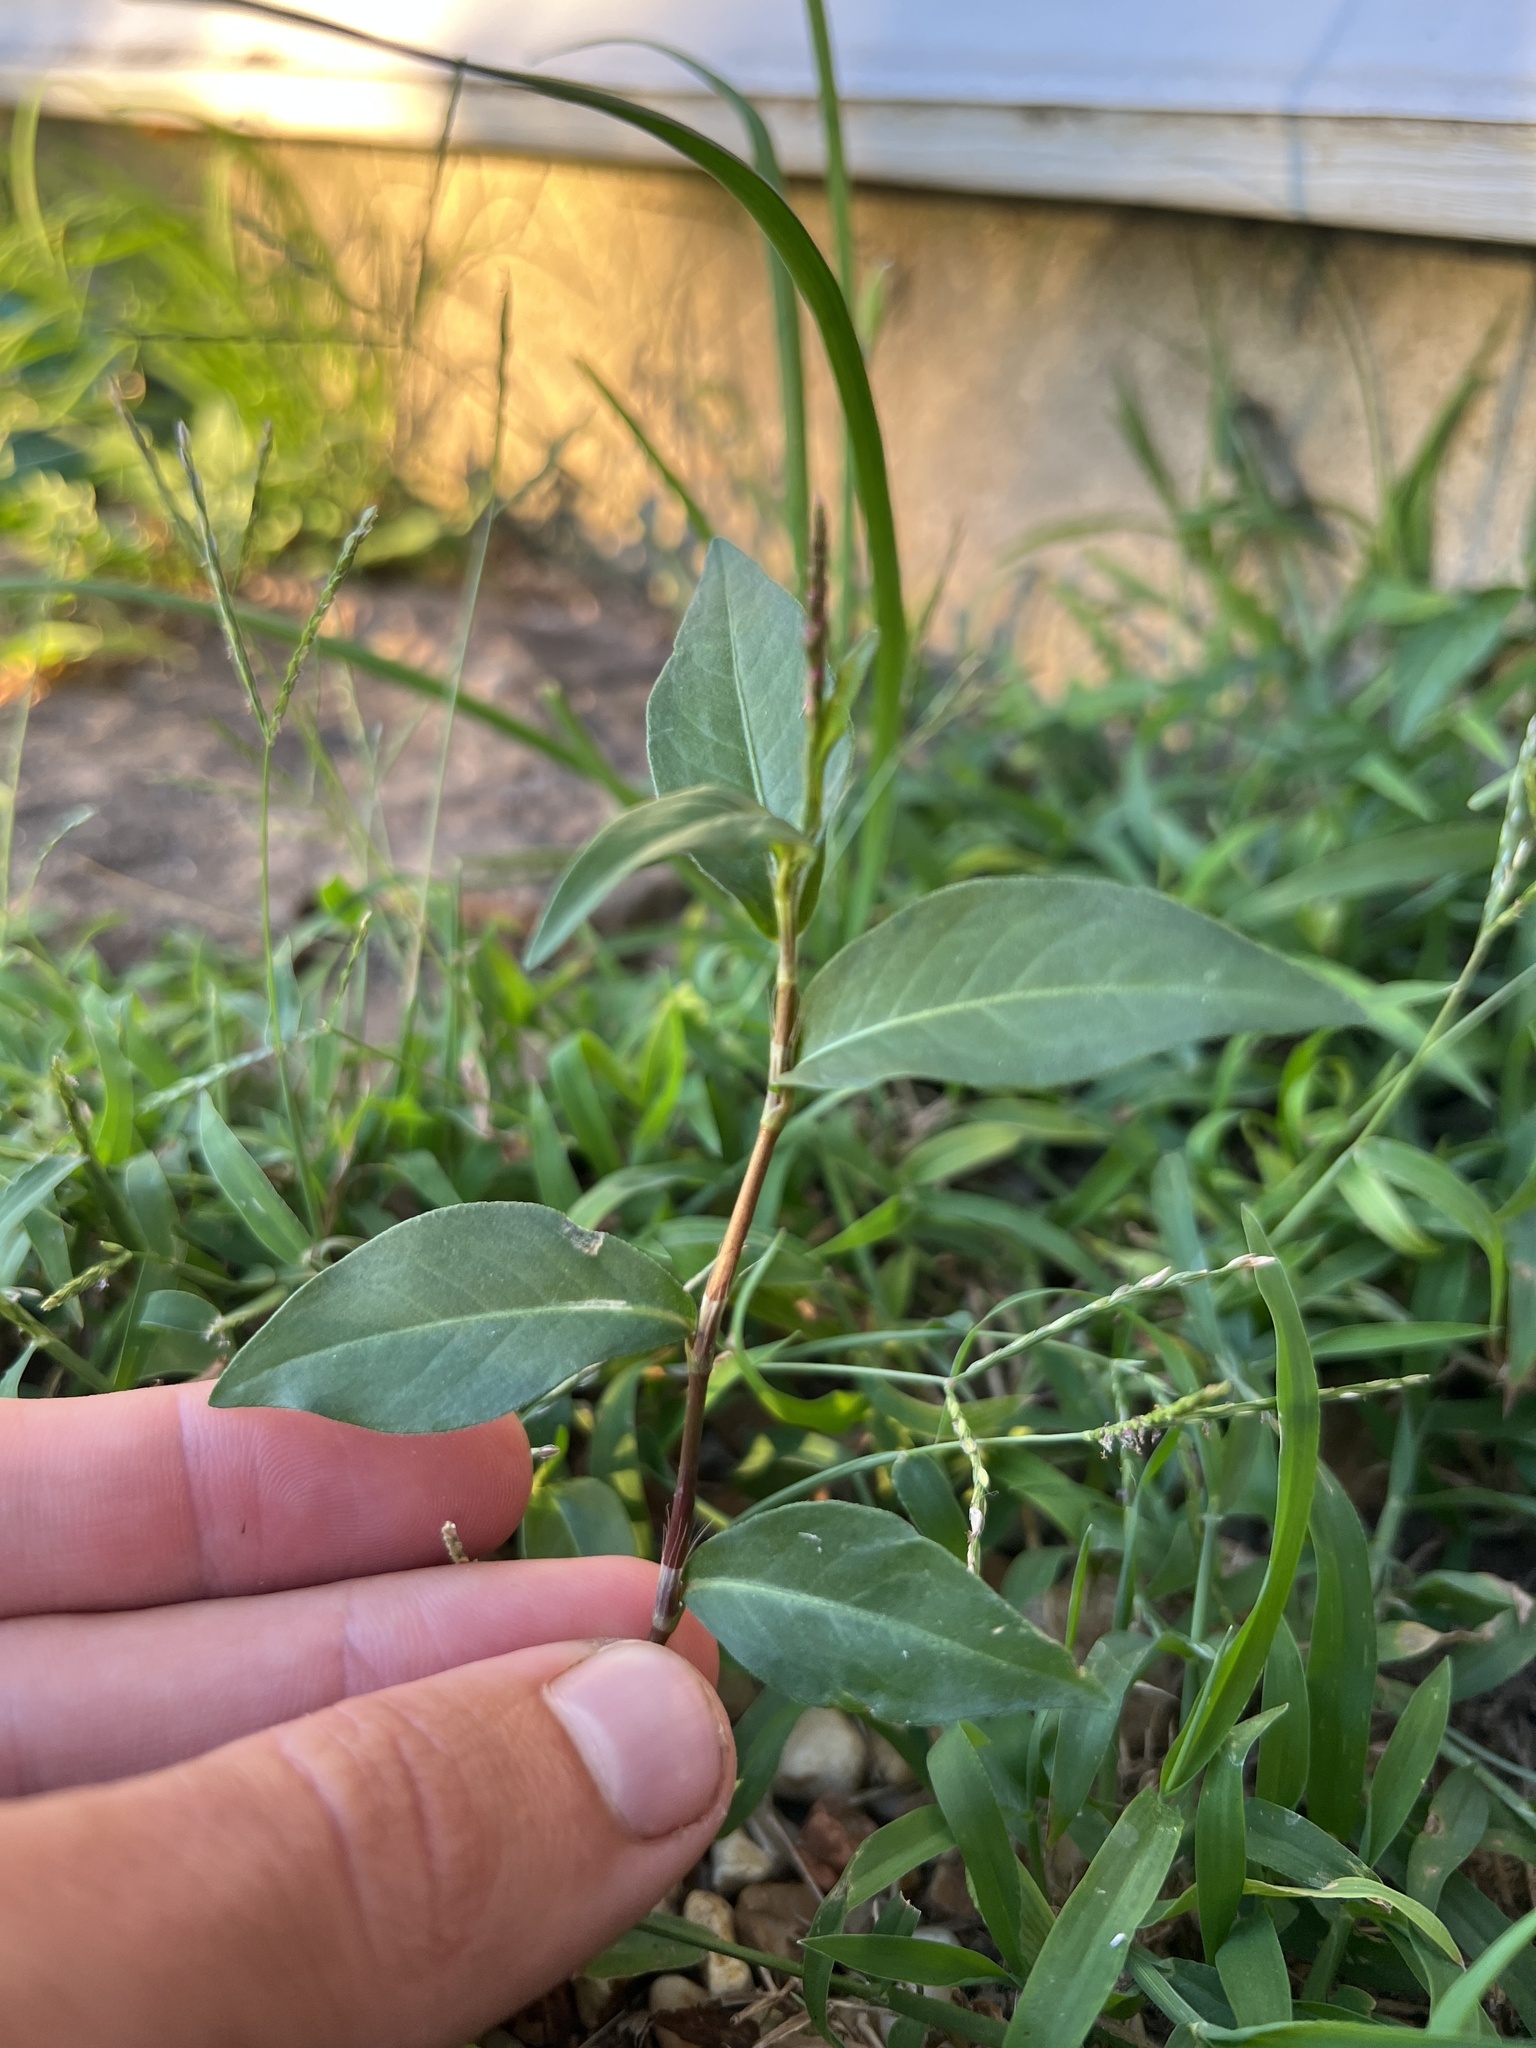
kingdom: Plantae
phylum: Tracheophyta
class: Magnoliopsida
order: Caryophyllales
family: Polygonaceae
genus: Persicaria
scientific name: Persicaria longiseta
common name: Bristly lady's-thumb
